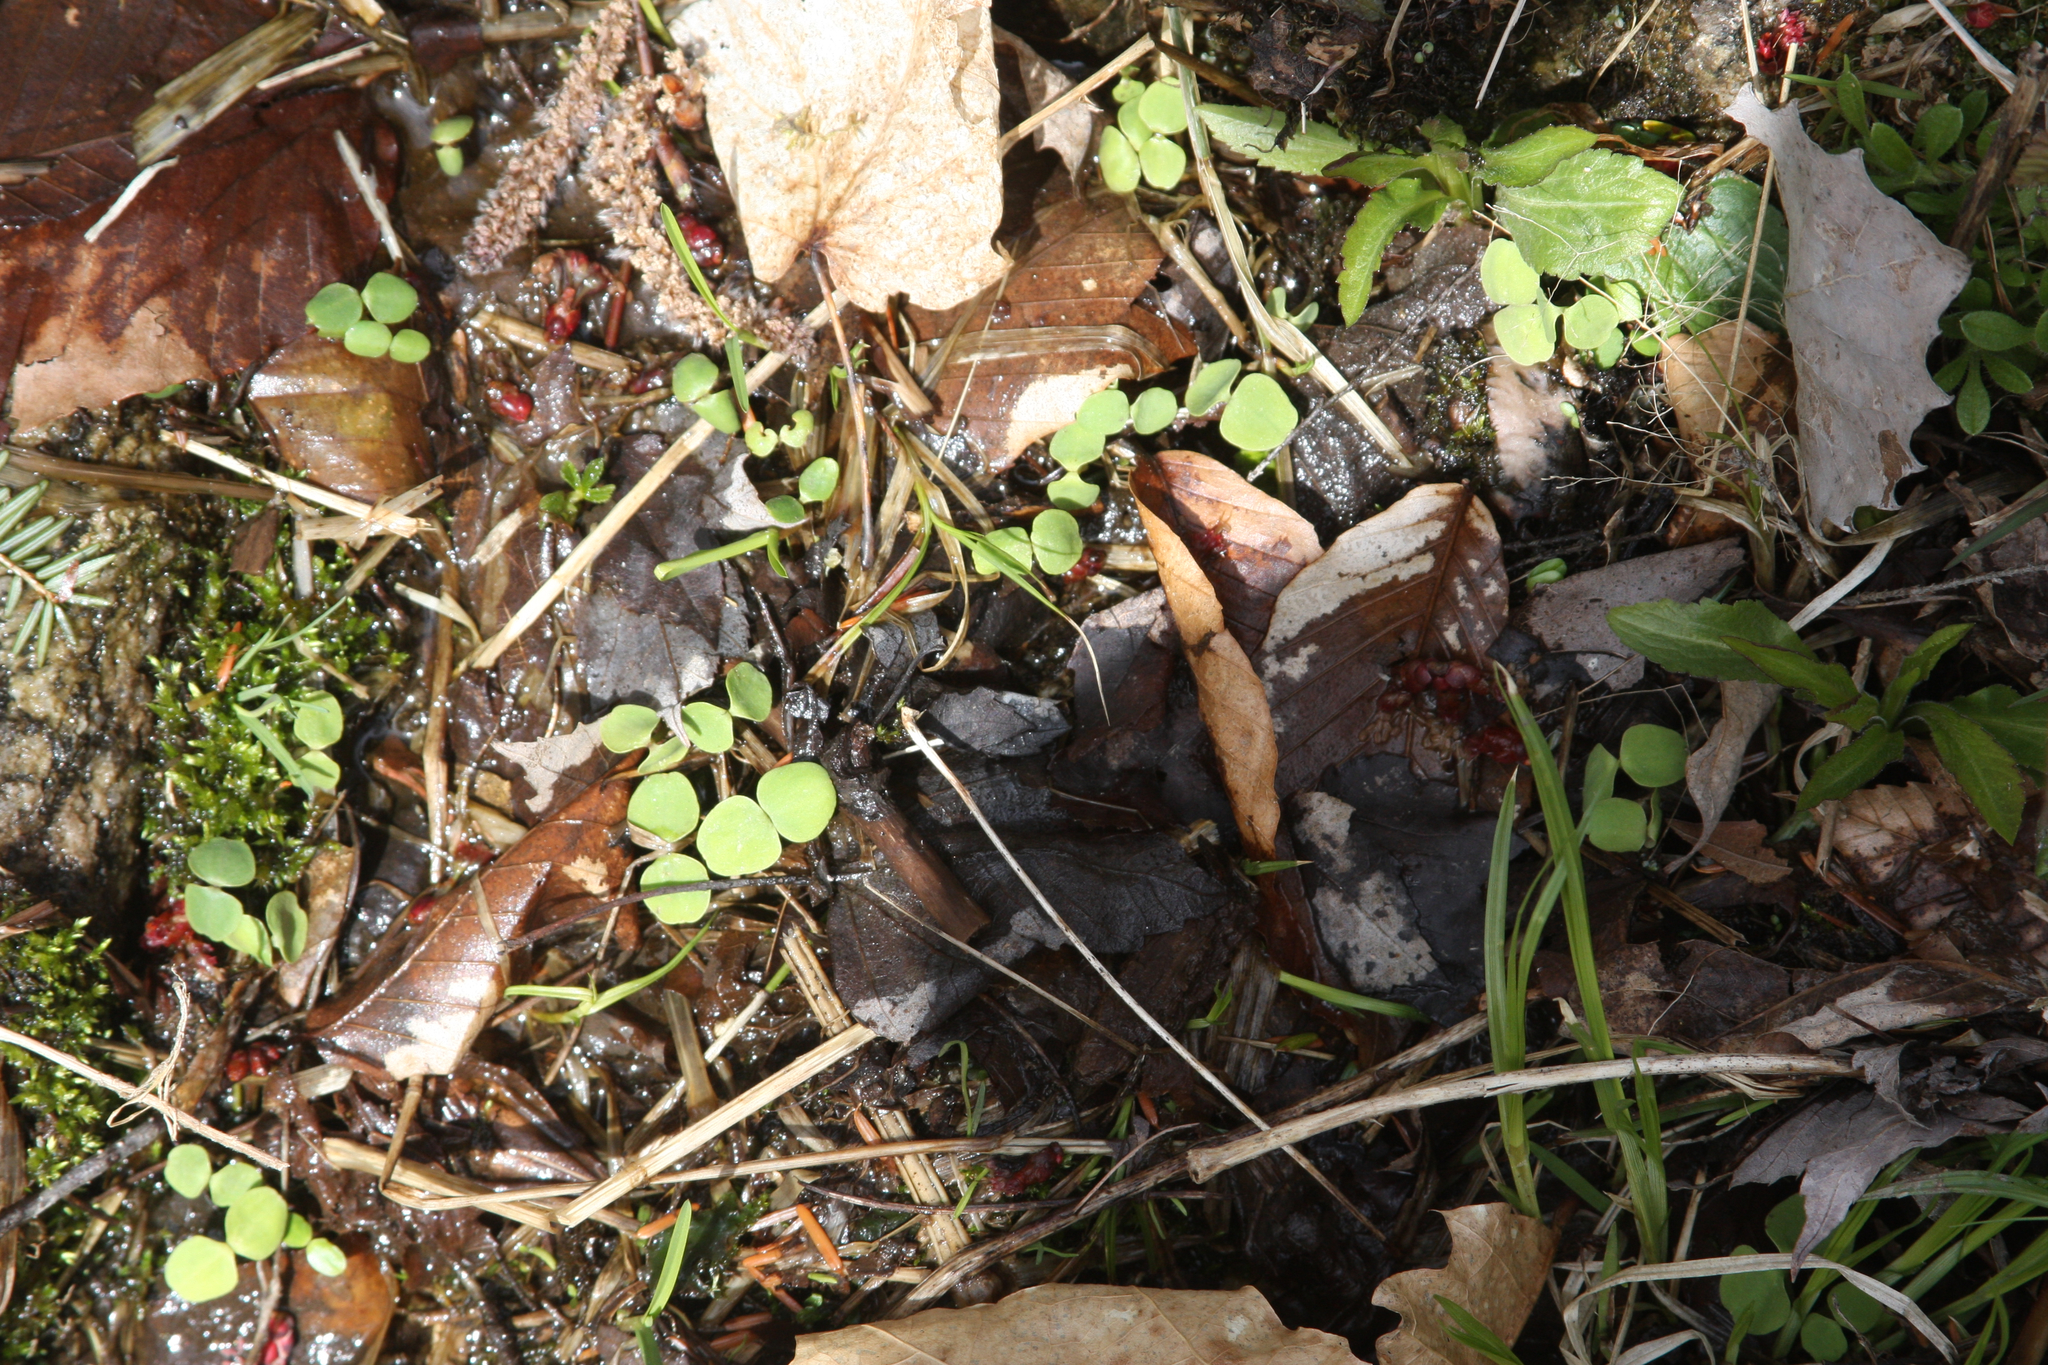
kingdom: Plantae
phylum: Tracheophyta
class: Magnoliopsida
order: Ericales
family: Balsaminaceae
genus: Impatiens
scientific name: Impatiens
